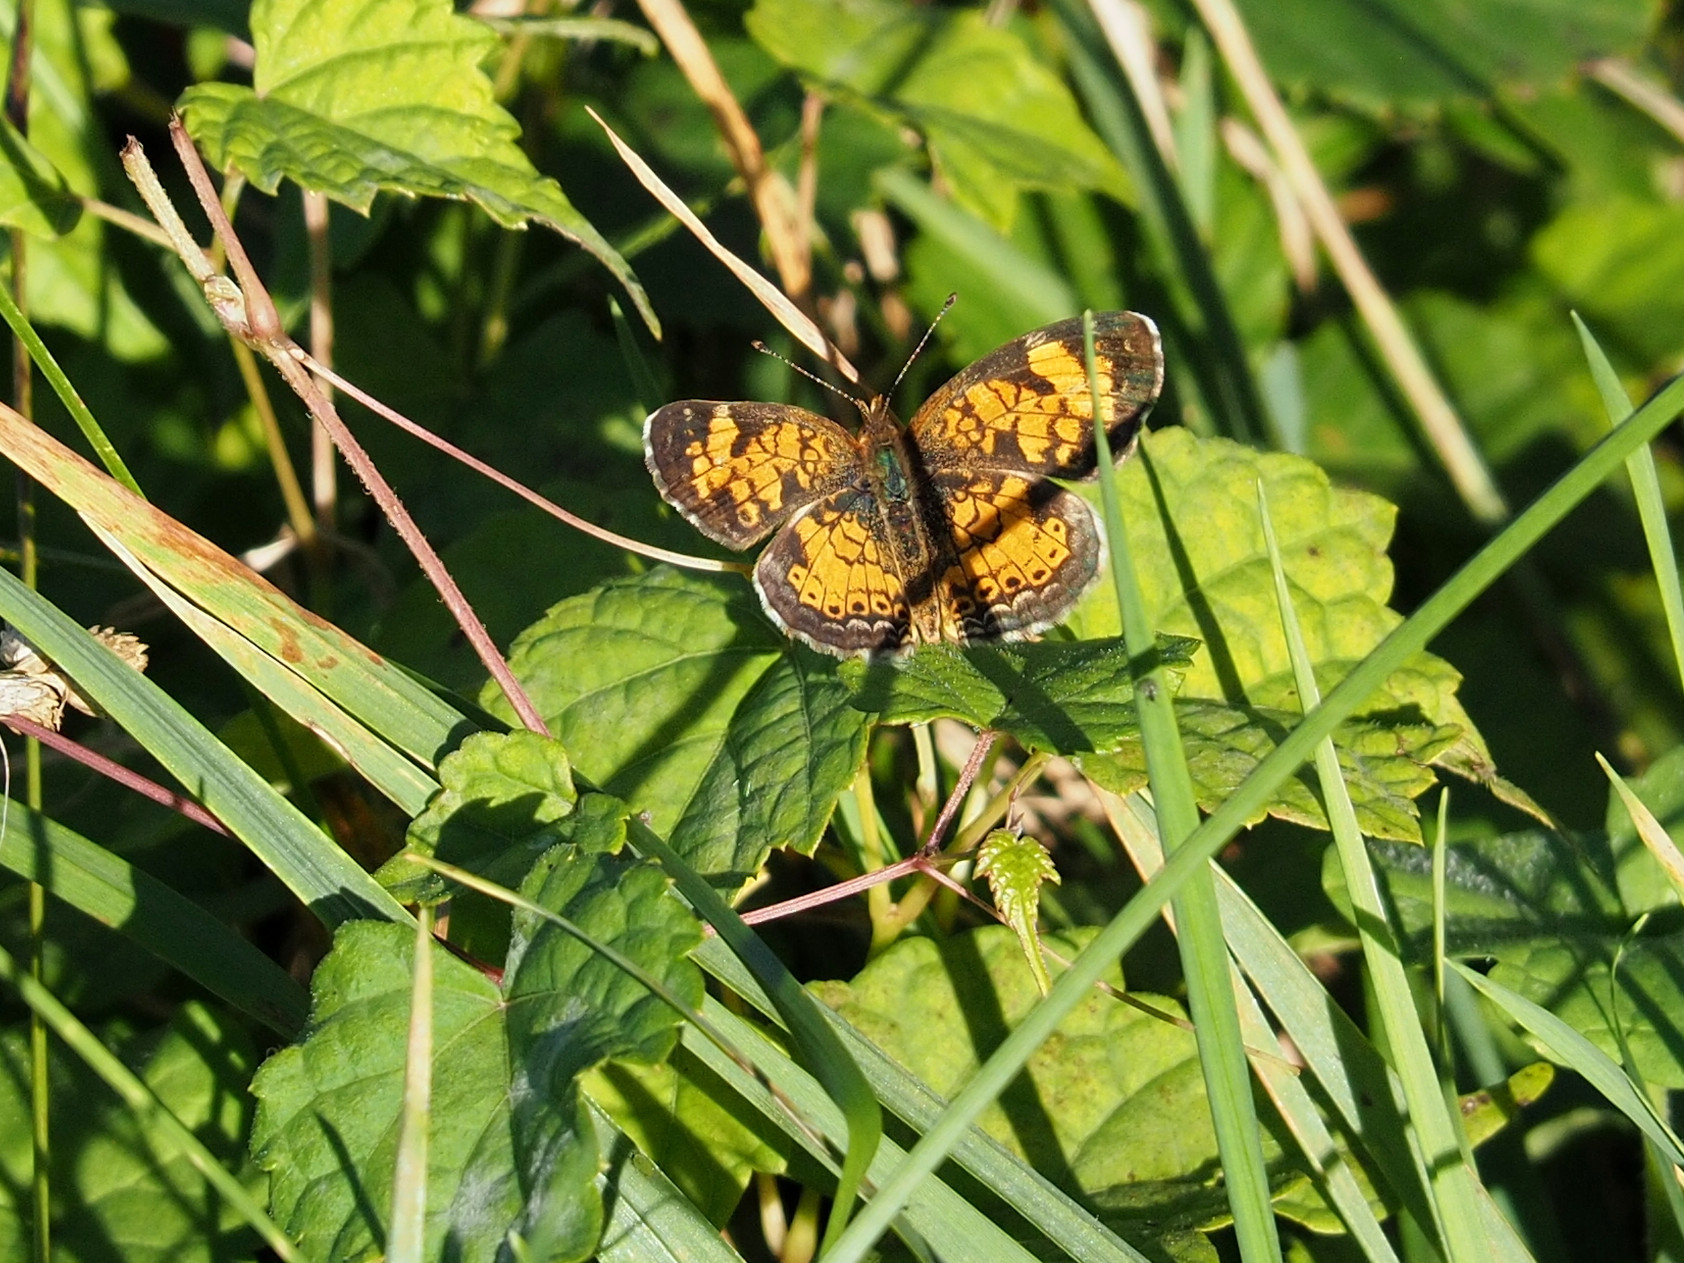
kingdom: Animalia
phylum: Arthropoda
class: Insecta
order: Lepidoptera
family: Nymphalidae
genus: Phyciodes
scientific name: Phyciodes tharos
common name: Pearl crescent
